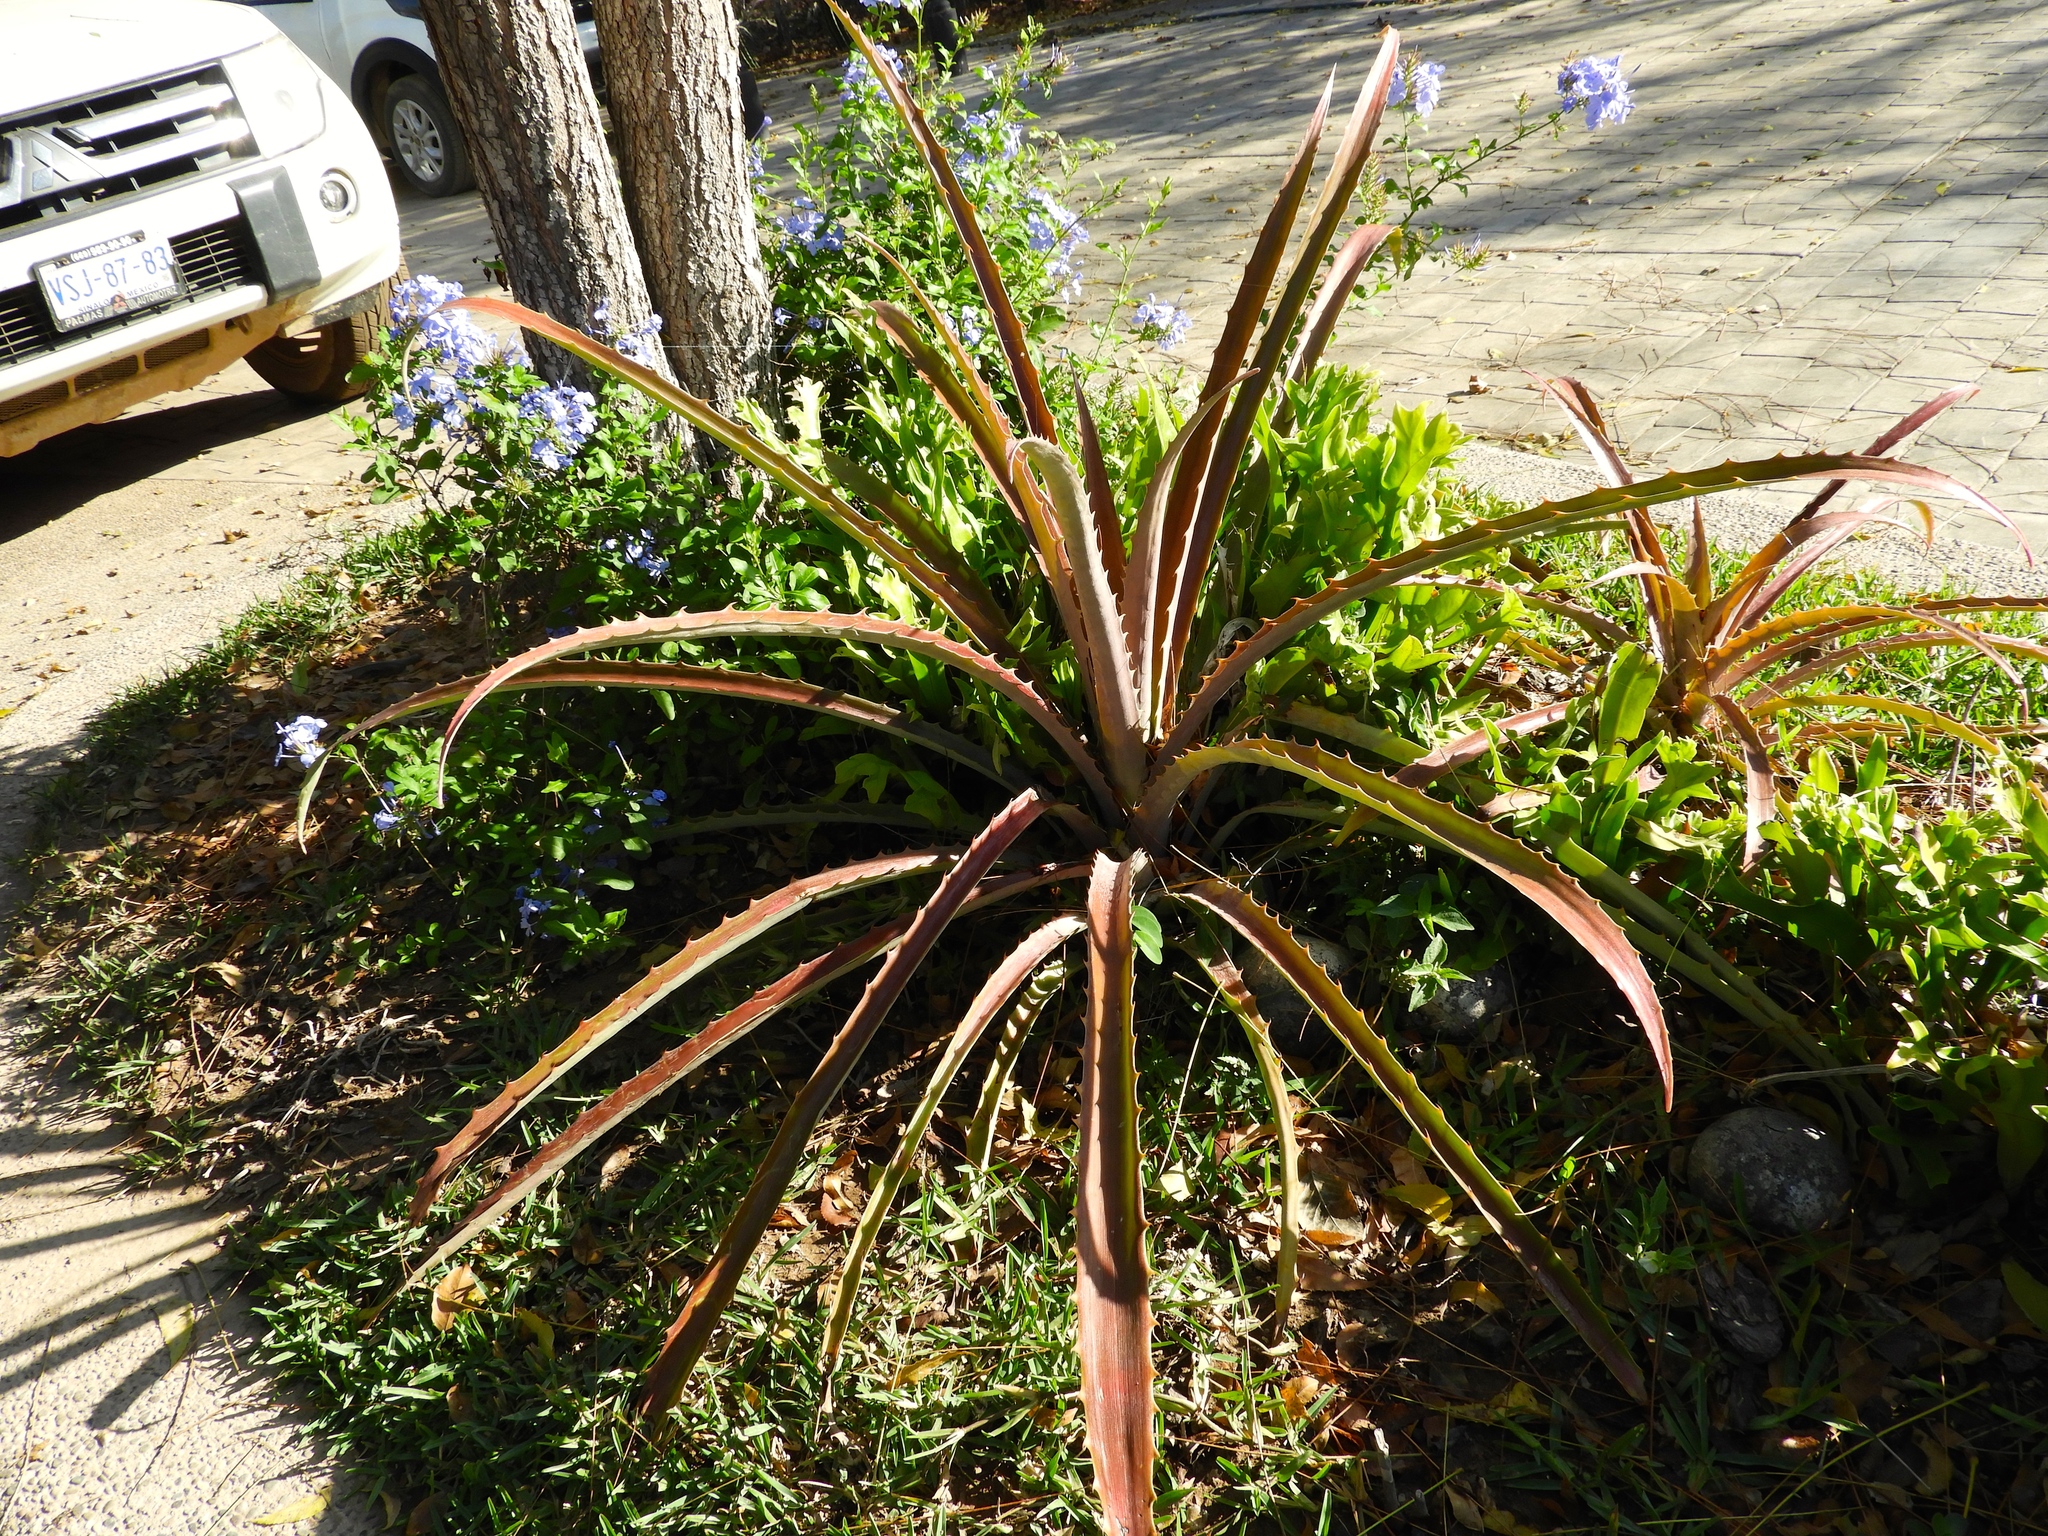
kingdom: Plantae
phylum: Tracheophyta
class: Liliopsida
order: Poales
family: Bromeliaceae
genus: Bromelia
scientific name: Bromelia karatas
